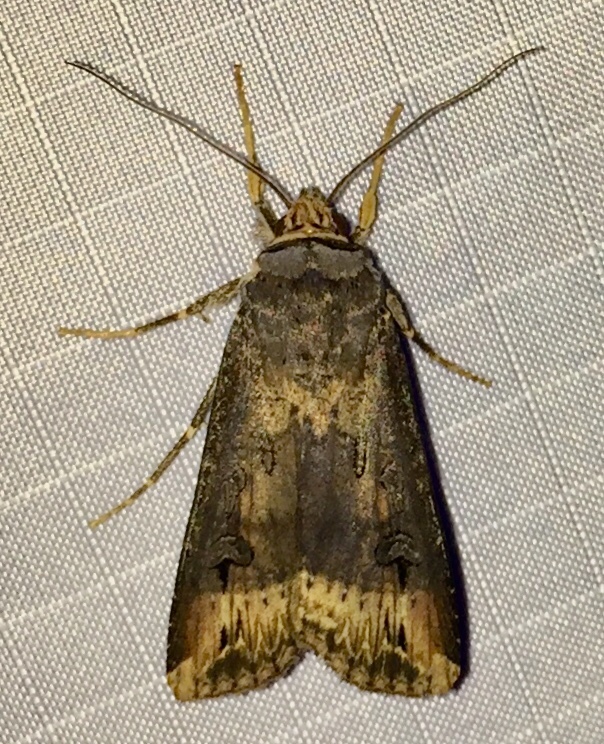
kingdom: Animalia
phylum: Arthropoda
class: Insecta
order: Lepidoptera
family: Noctuidae
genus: Agrotis
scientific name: Agrotis ipsilon
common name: Dark sword-grass
